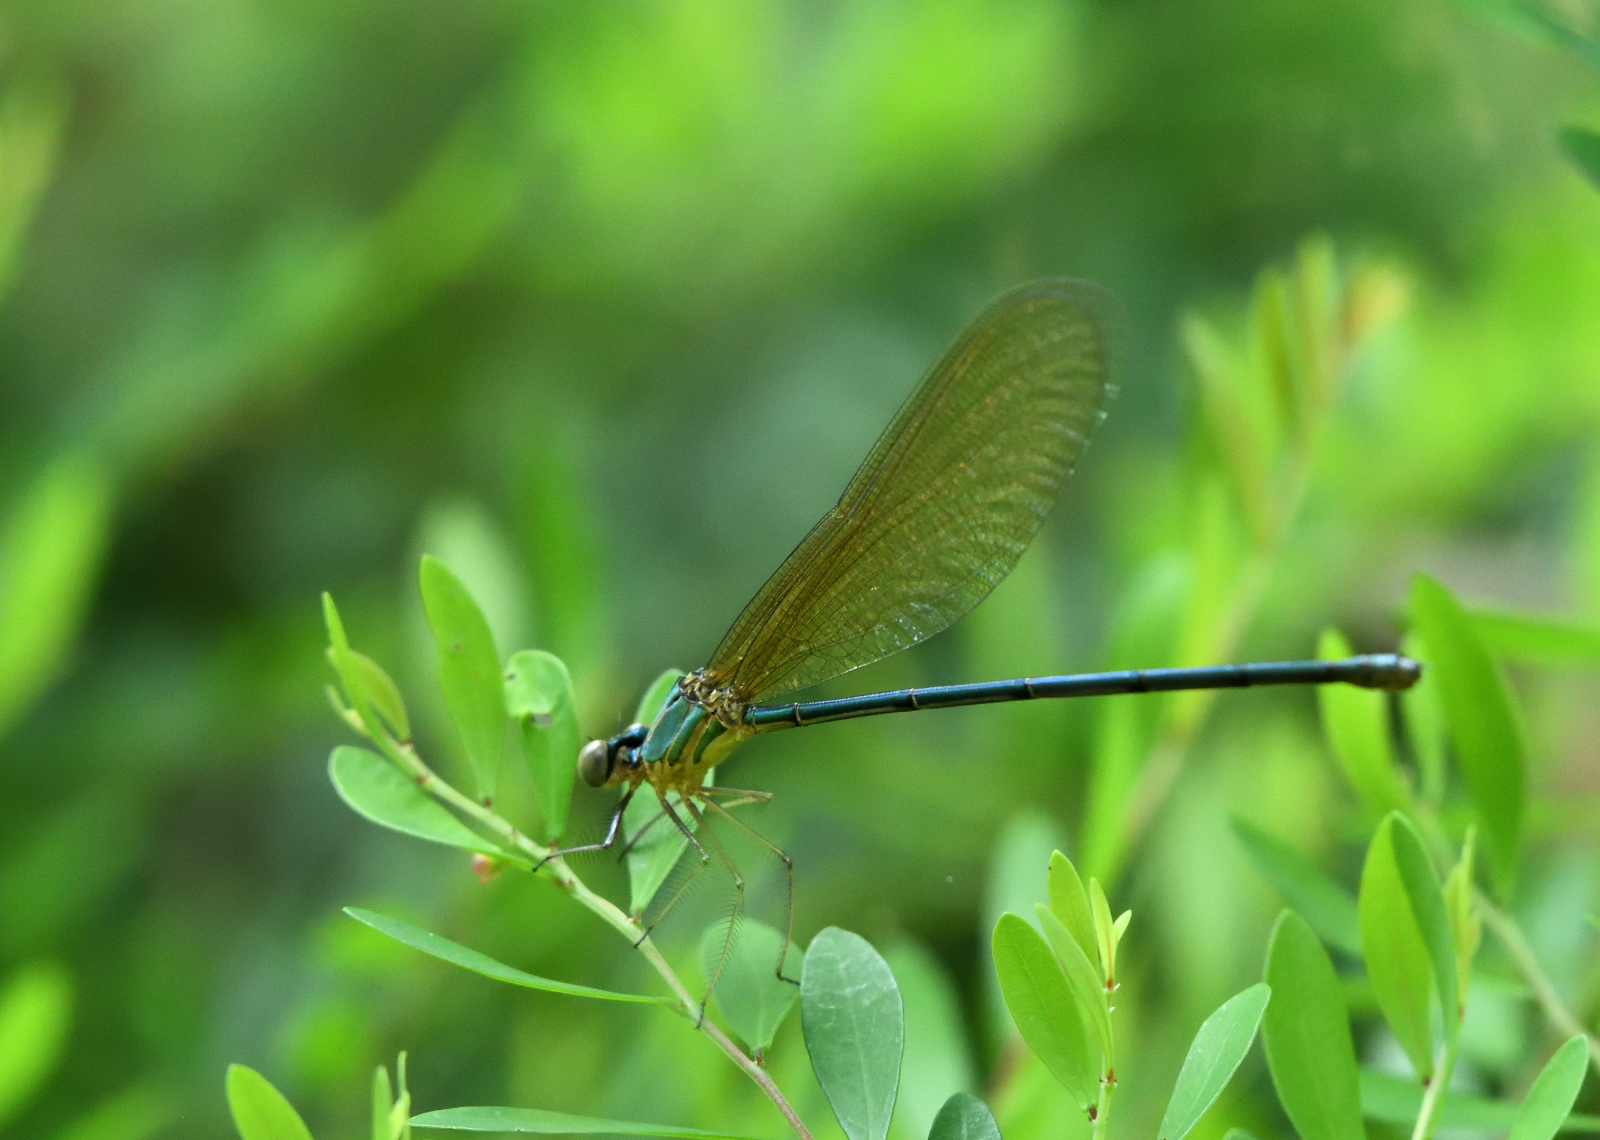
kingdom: Animalia
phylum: Arthropoda
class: Insecta
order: Odonata
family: Calopterygidae
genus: Vestalis
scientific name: Vestalis gracilis
